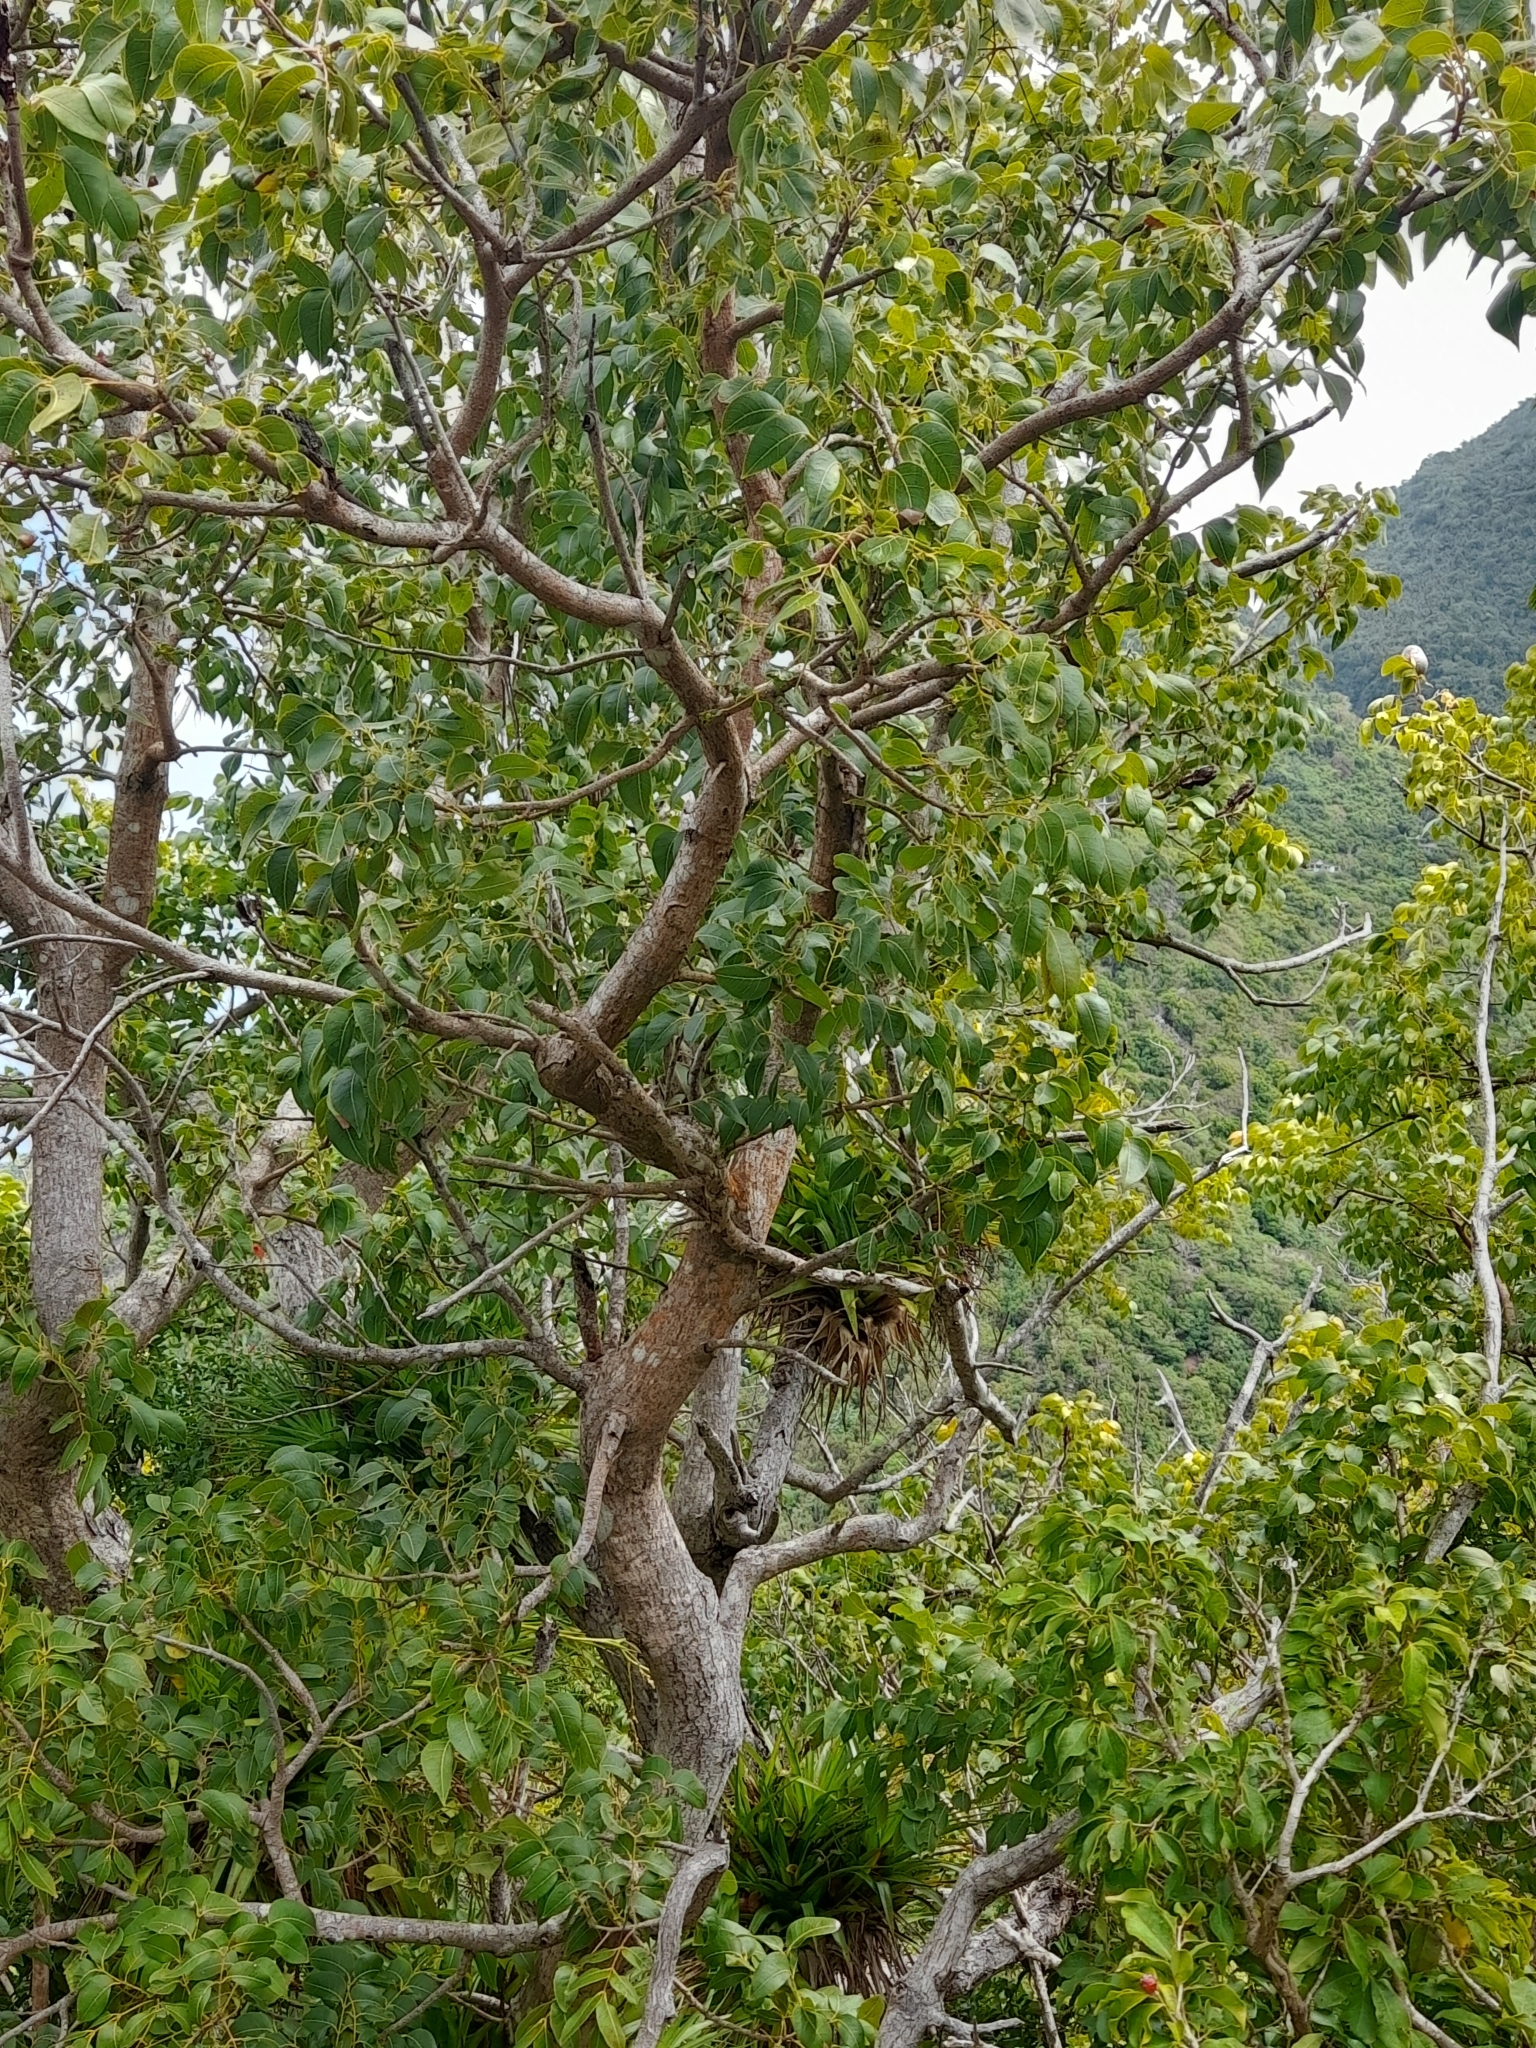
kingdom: Plantae
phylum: Tracheophyta
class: Magnoliopsida
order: Sapindales
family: Meliaceae
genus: Swietenia
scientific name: Swietenia mahagoni
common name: West indian mahogany
